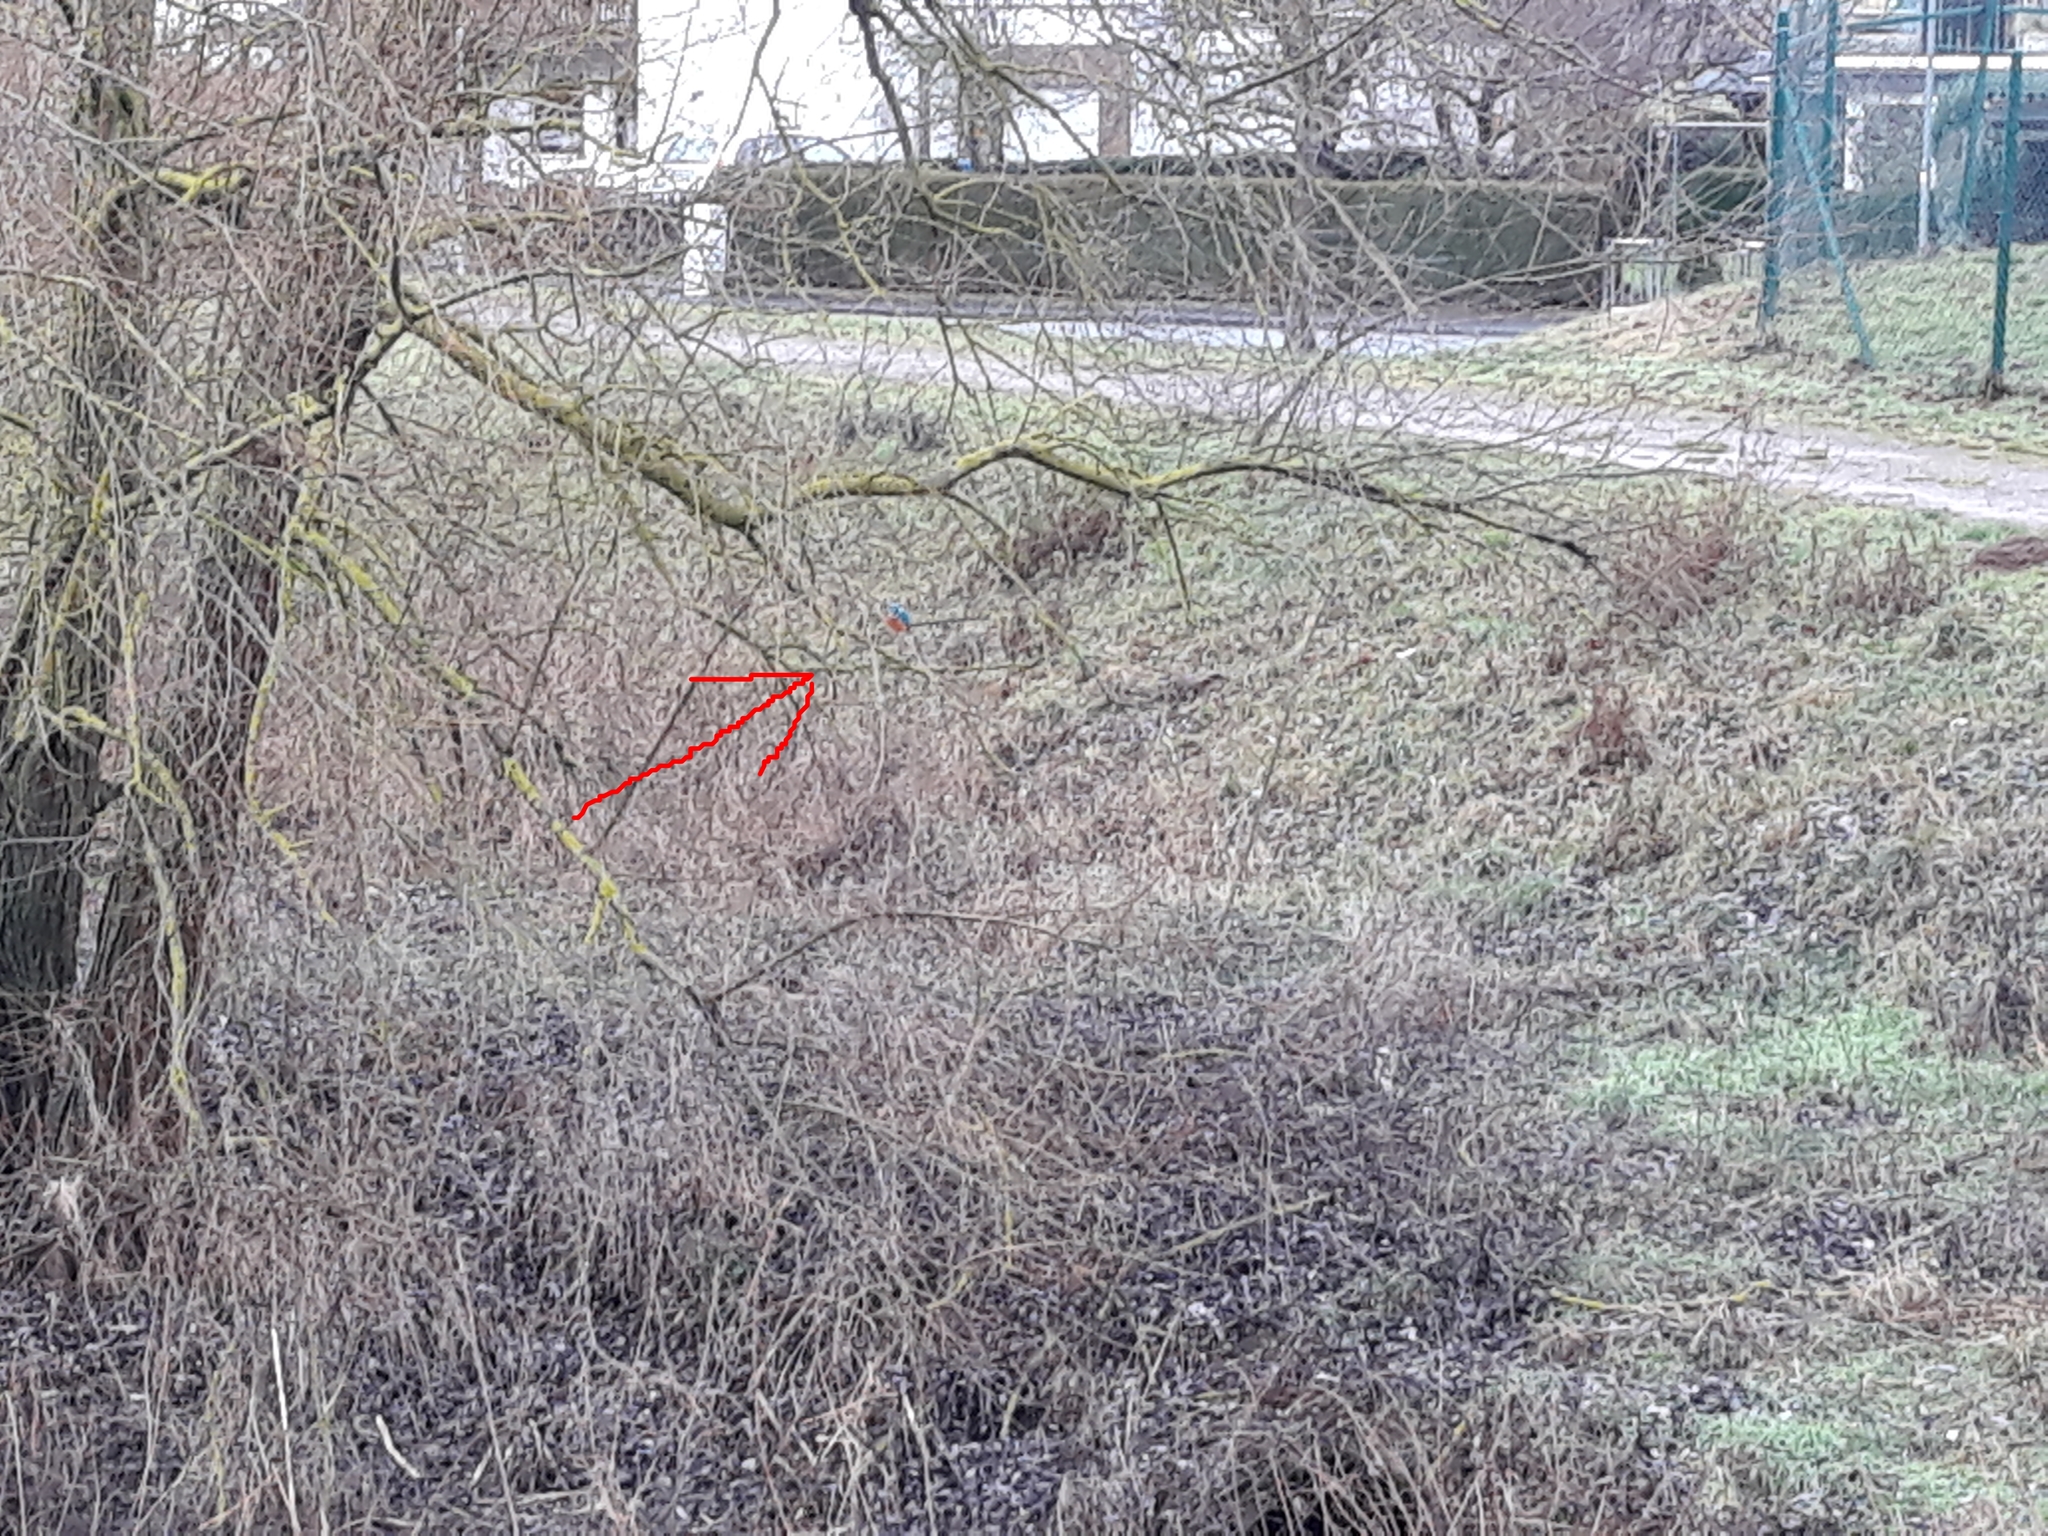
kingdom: Animalia
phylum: Chordata
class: Aves
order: Coraciiformes
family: Alcedinidae
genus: Alcedo
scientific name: Alcedo atthis
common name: Common kingfisher
